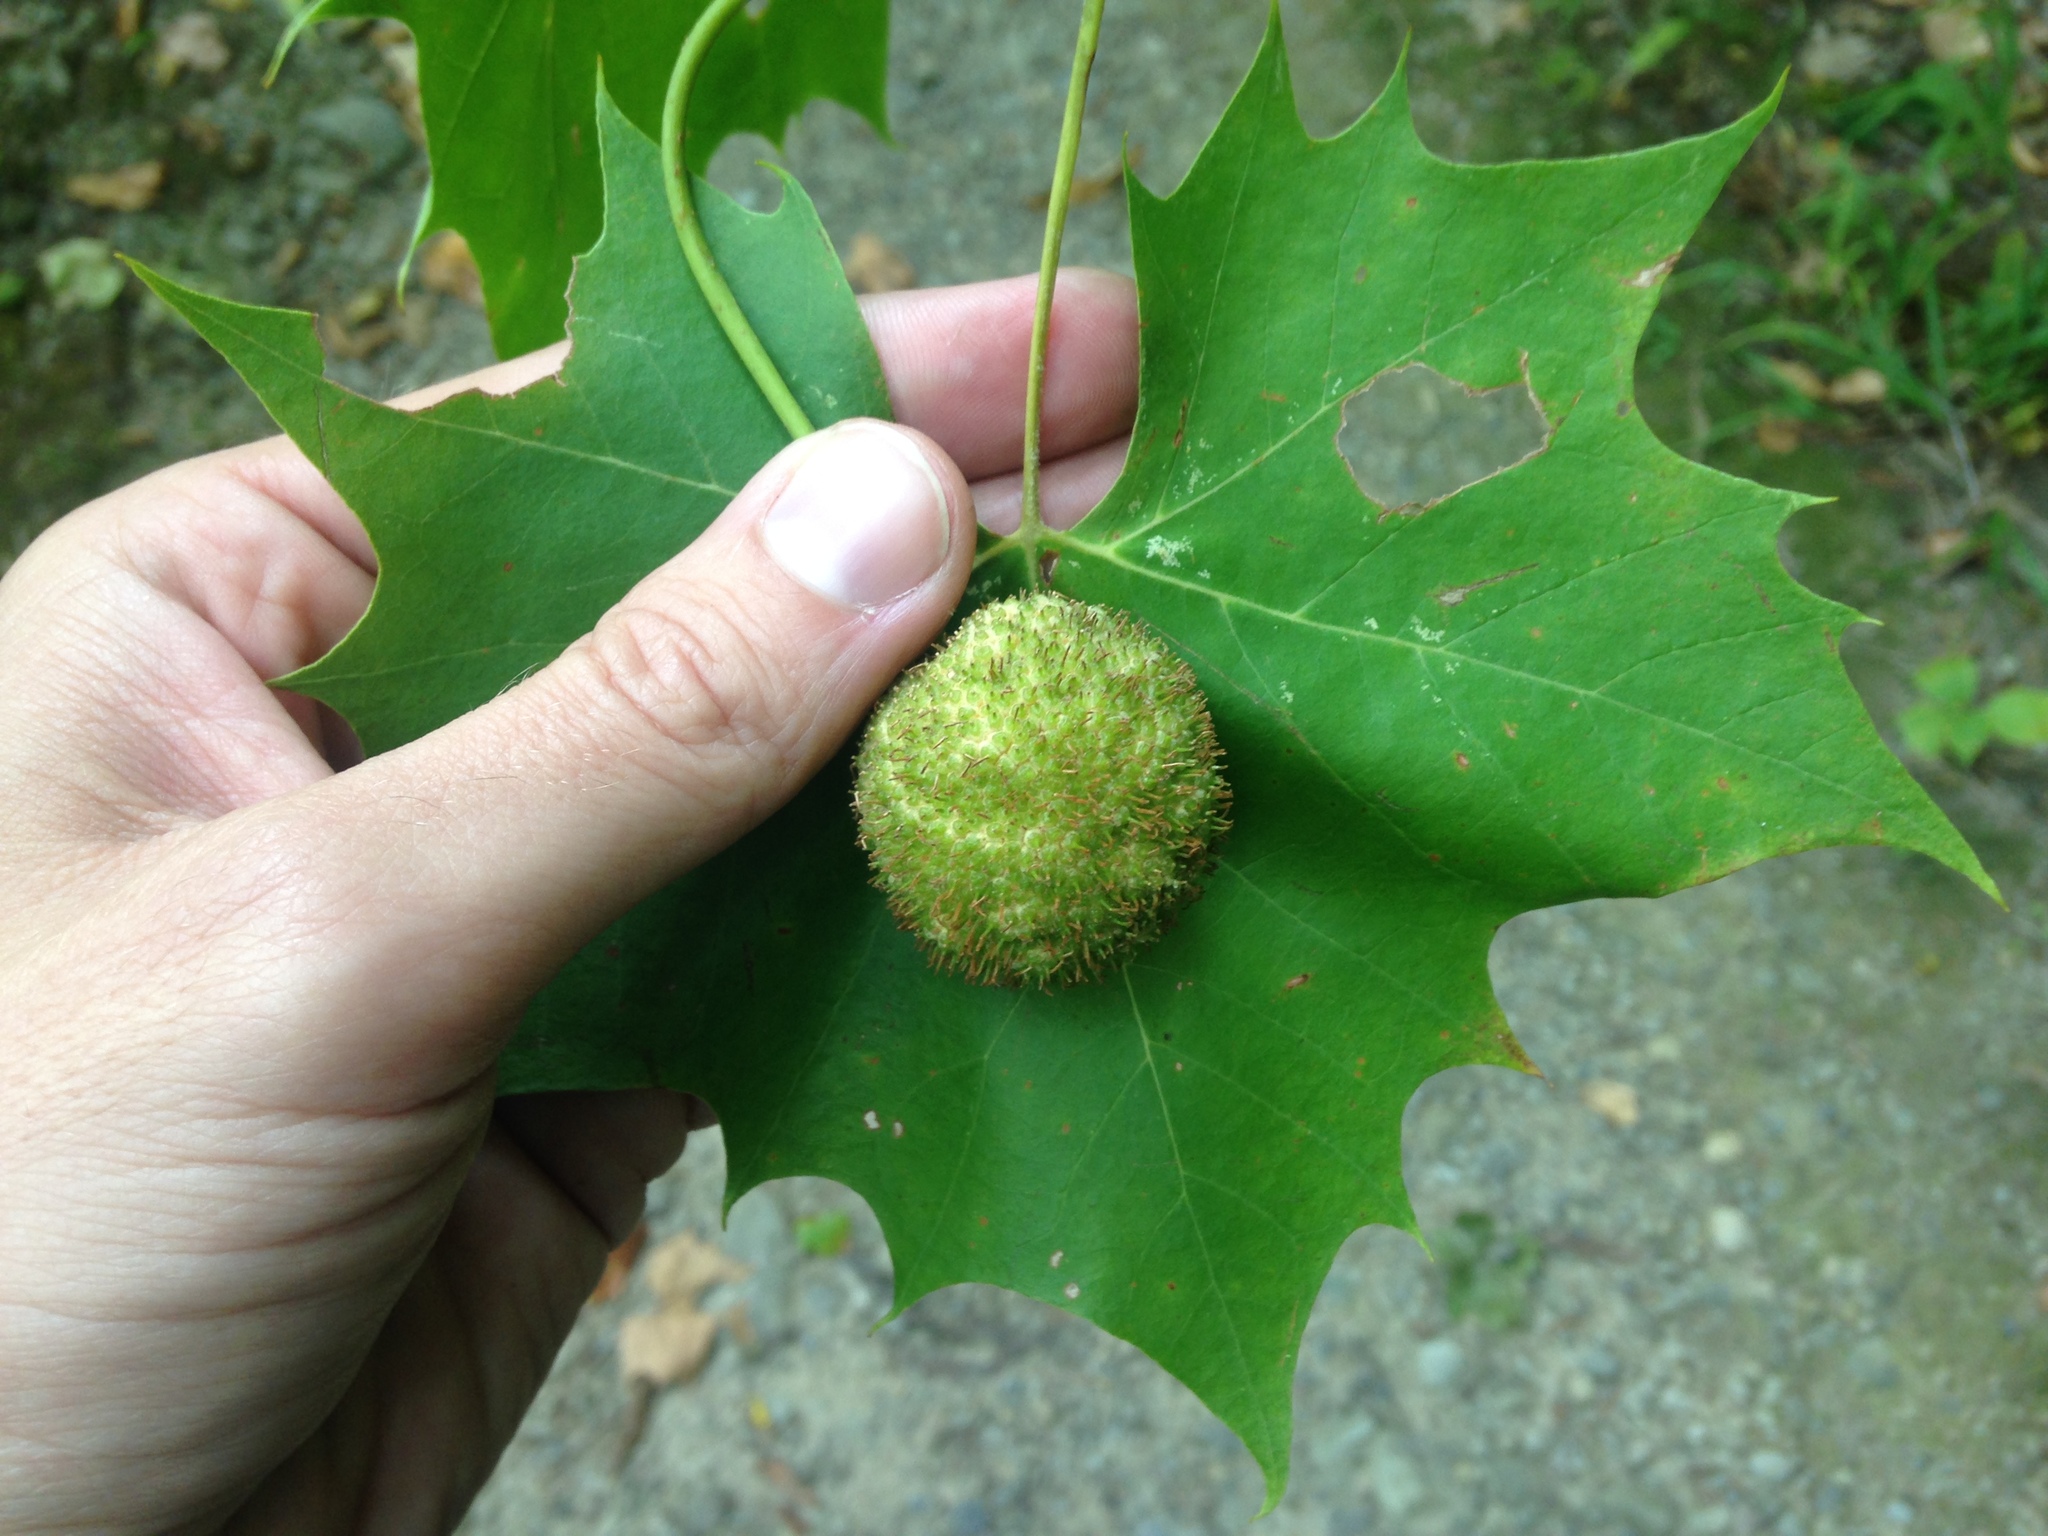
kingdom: Plantae
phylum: Tracheophyta
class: Magnoliopsida
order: Proteales
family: Platanaceae
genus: Platanus
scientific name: Platanus occidentalis
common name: American sycamore
